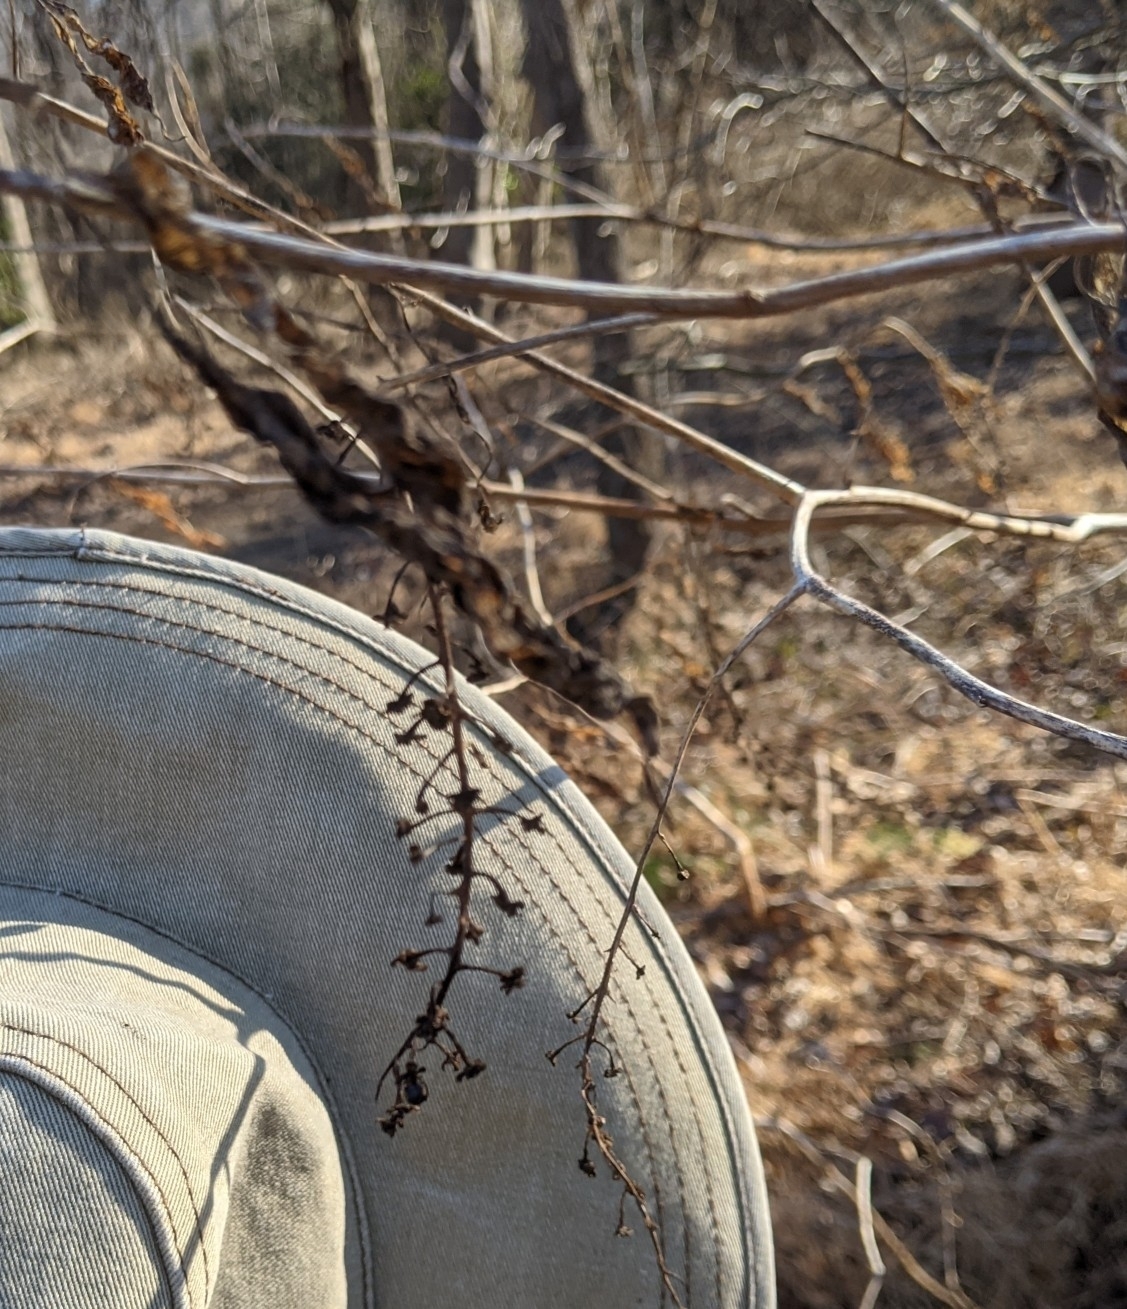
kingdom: Plantae
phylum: Tracheophyta
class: Magnoliopsida
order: Caryophyllales
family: Phytolaccaceae
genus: Phytolacca
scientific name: Phytolacca americana
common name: American pokeweed
